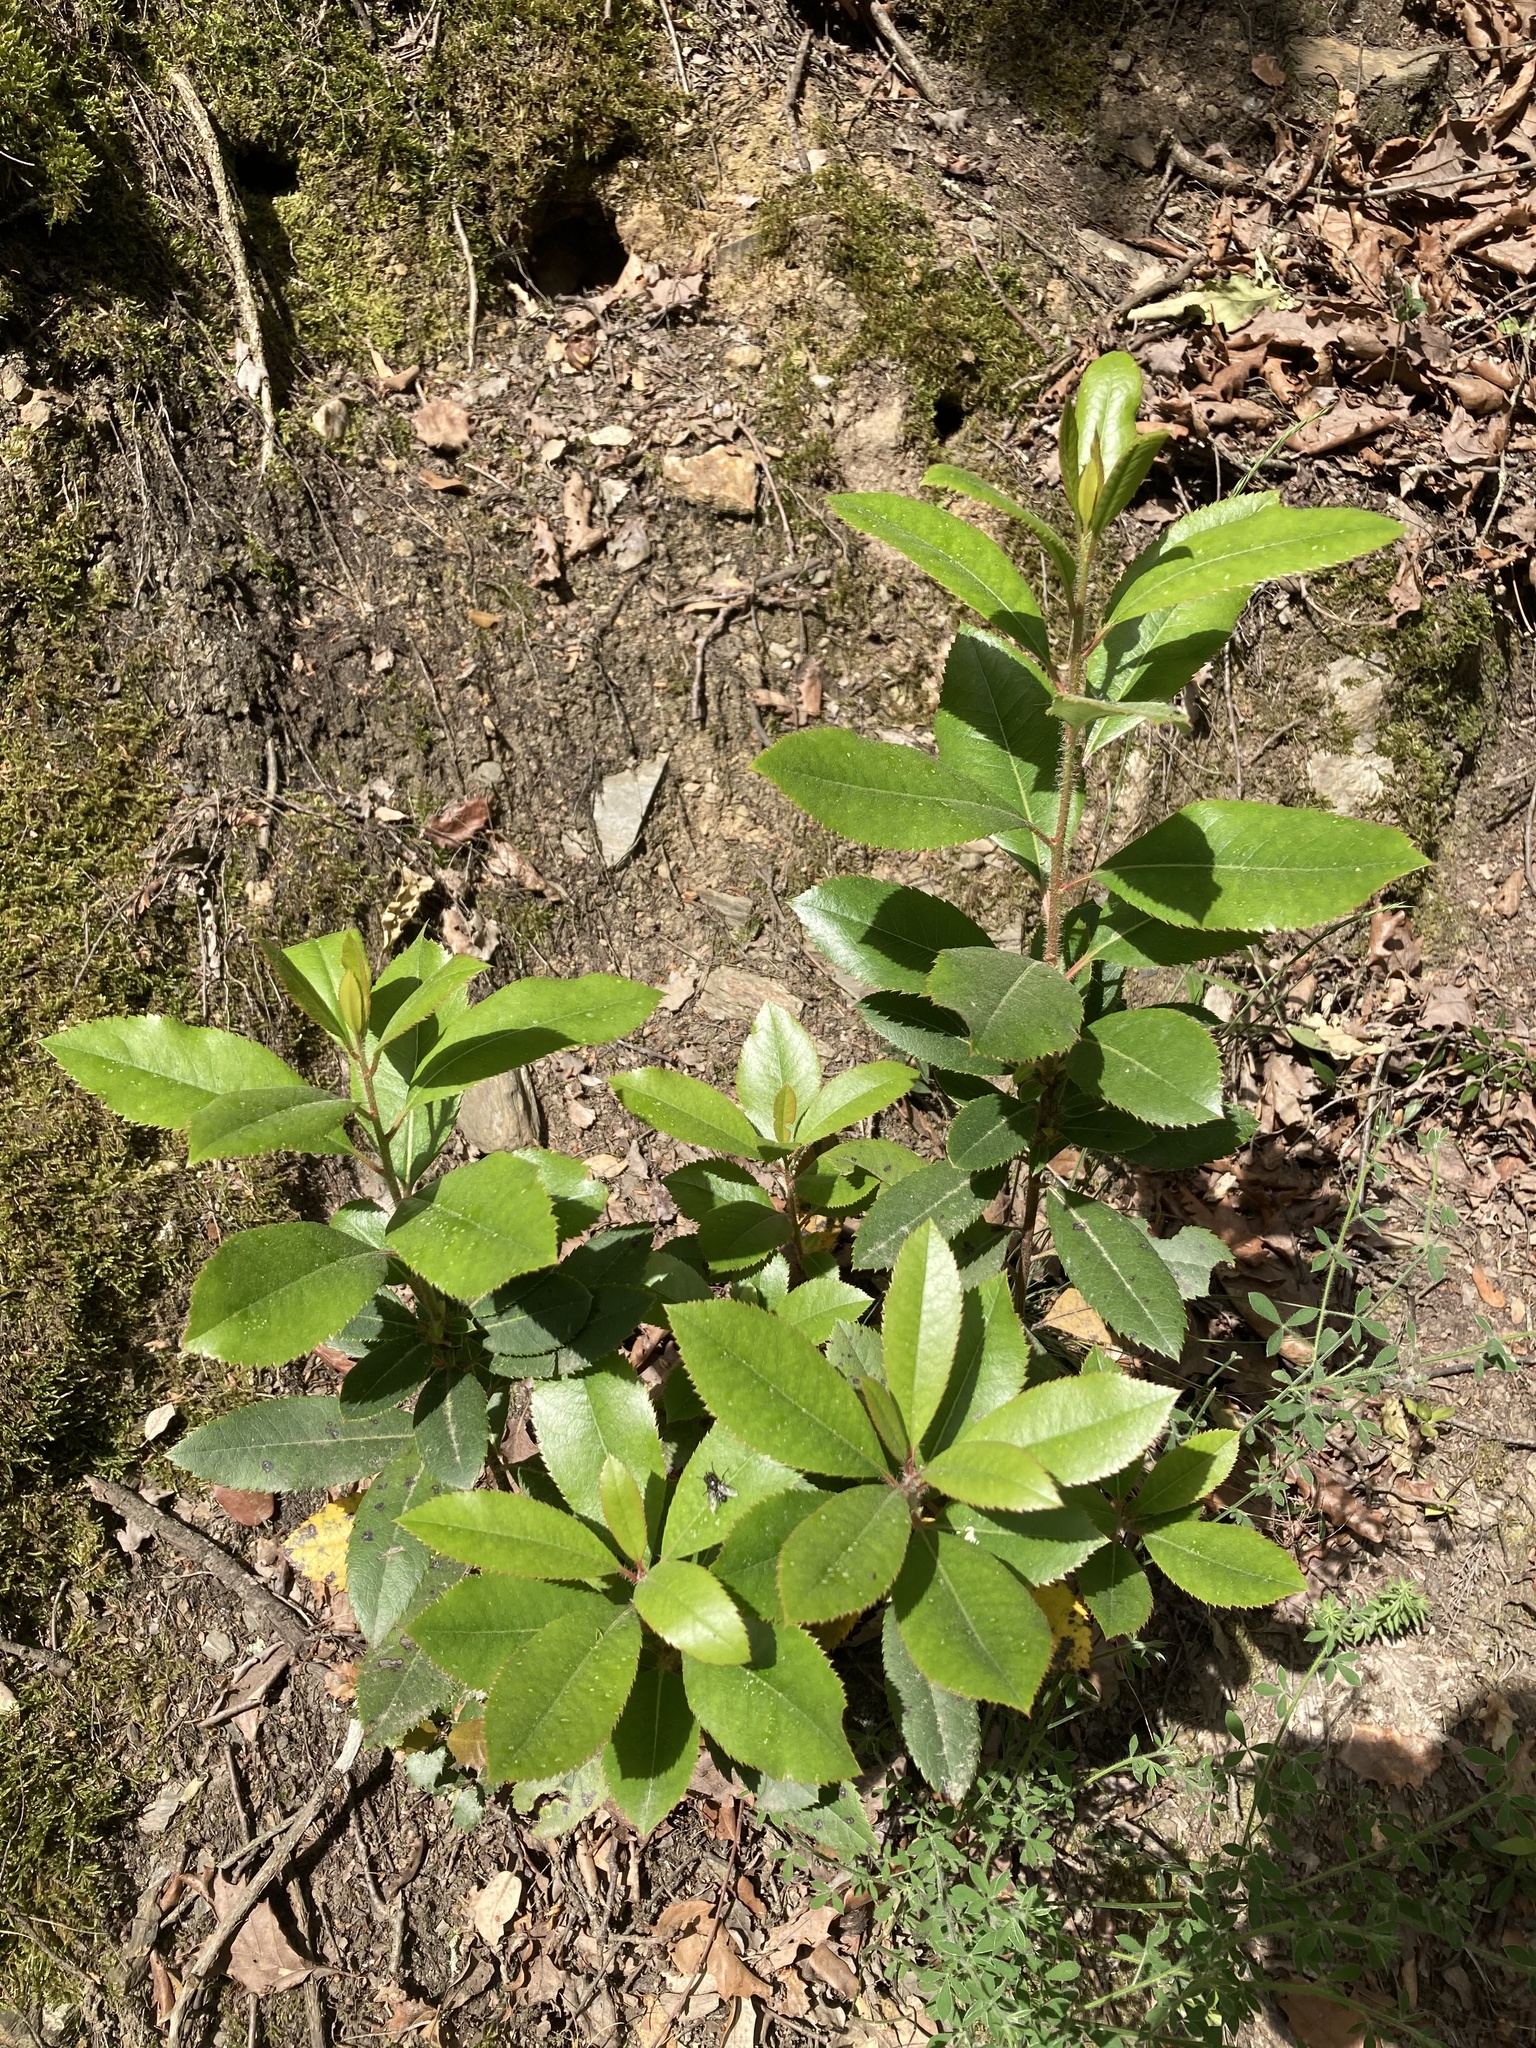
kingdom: Plantae
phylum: Tracheophyta
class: Magnoliopsida
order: Ericales
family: Ericaceae
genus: Arbutus
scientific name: Arbutus unedo
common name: Strawberry-tree
